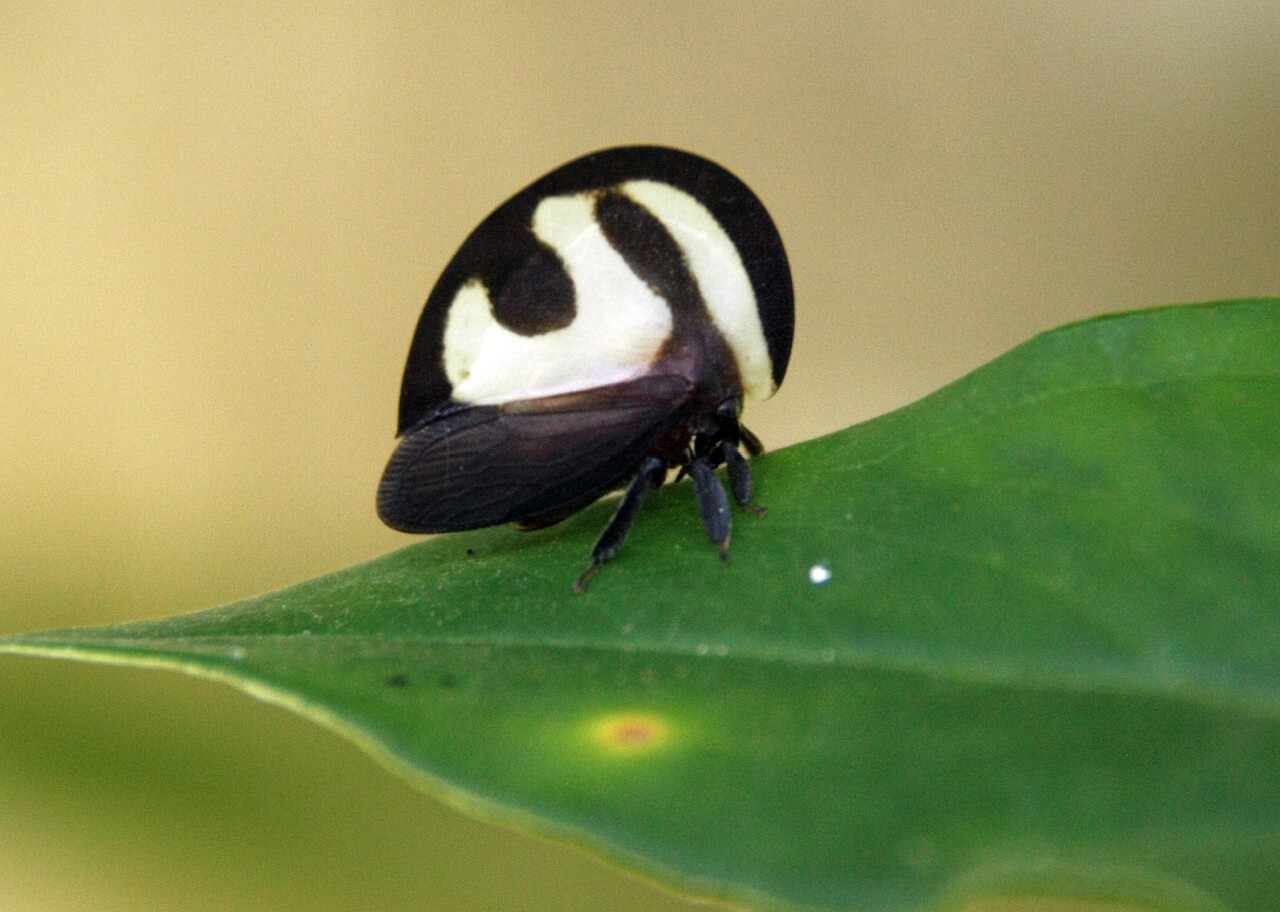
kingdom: Animalia
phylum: Arthropoda
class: Insecta
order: Hemiptera
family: Membracidae
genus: Membracis
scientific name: Membracis foliatafasciata
